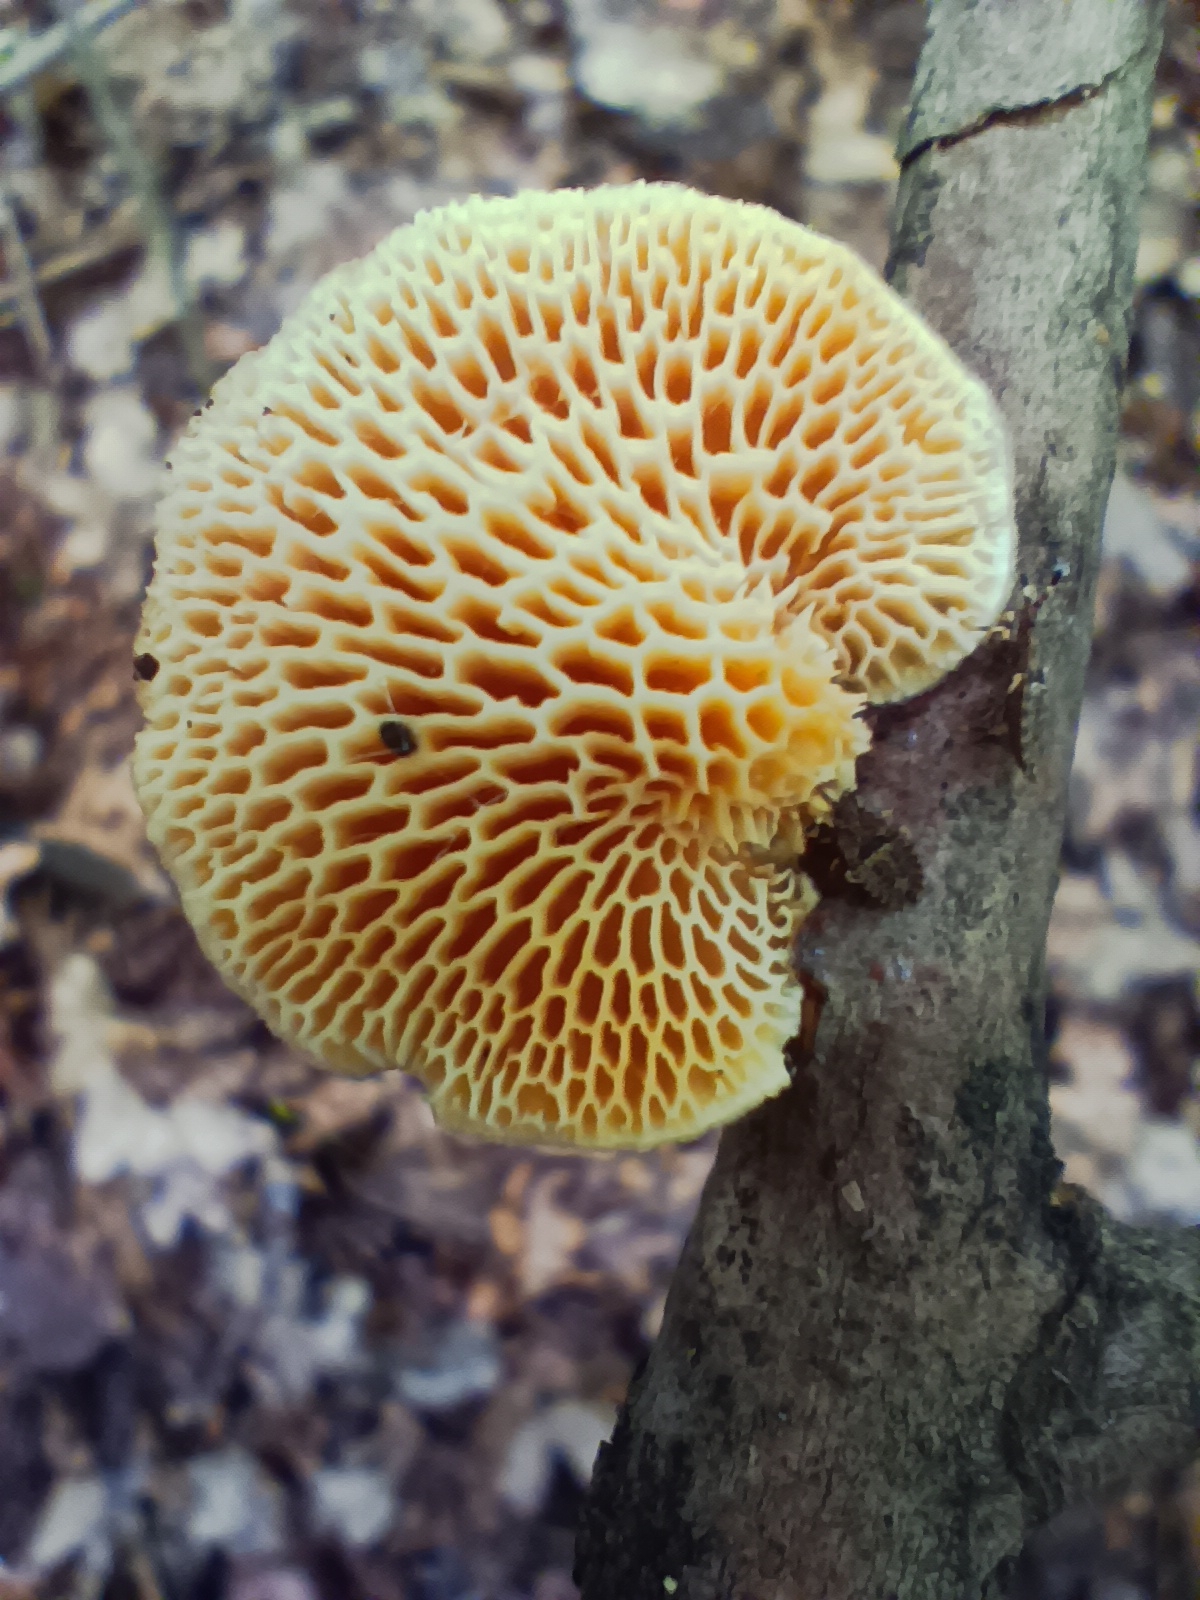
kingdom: Fungi
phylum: Basidiomycota
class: Agaricomycetes
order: Polyporales
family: Polyporaceae
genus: Neofavolus
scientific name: Neofavolus alveolaris
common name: Hexagonal-pored polypore
